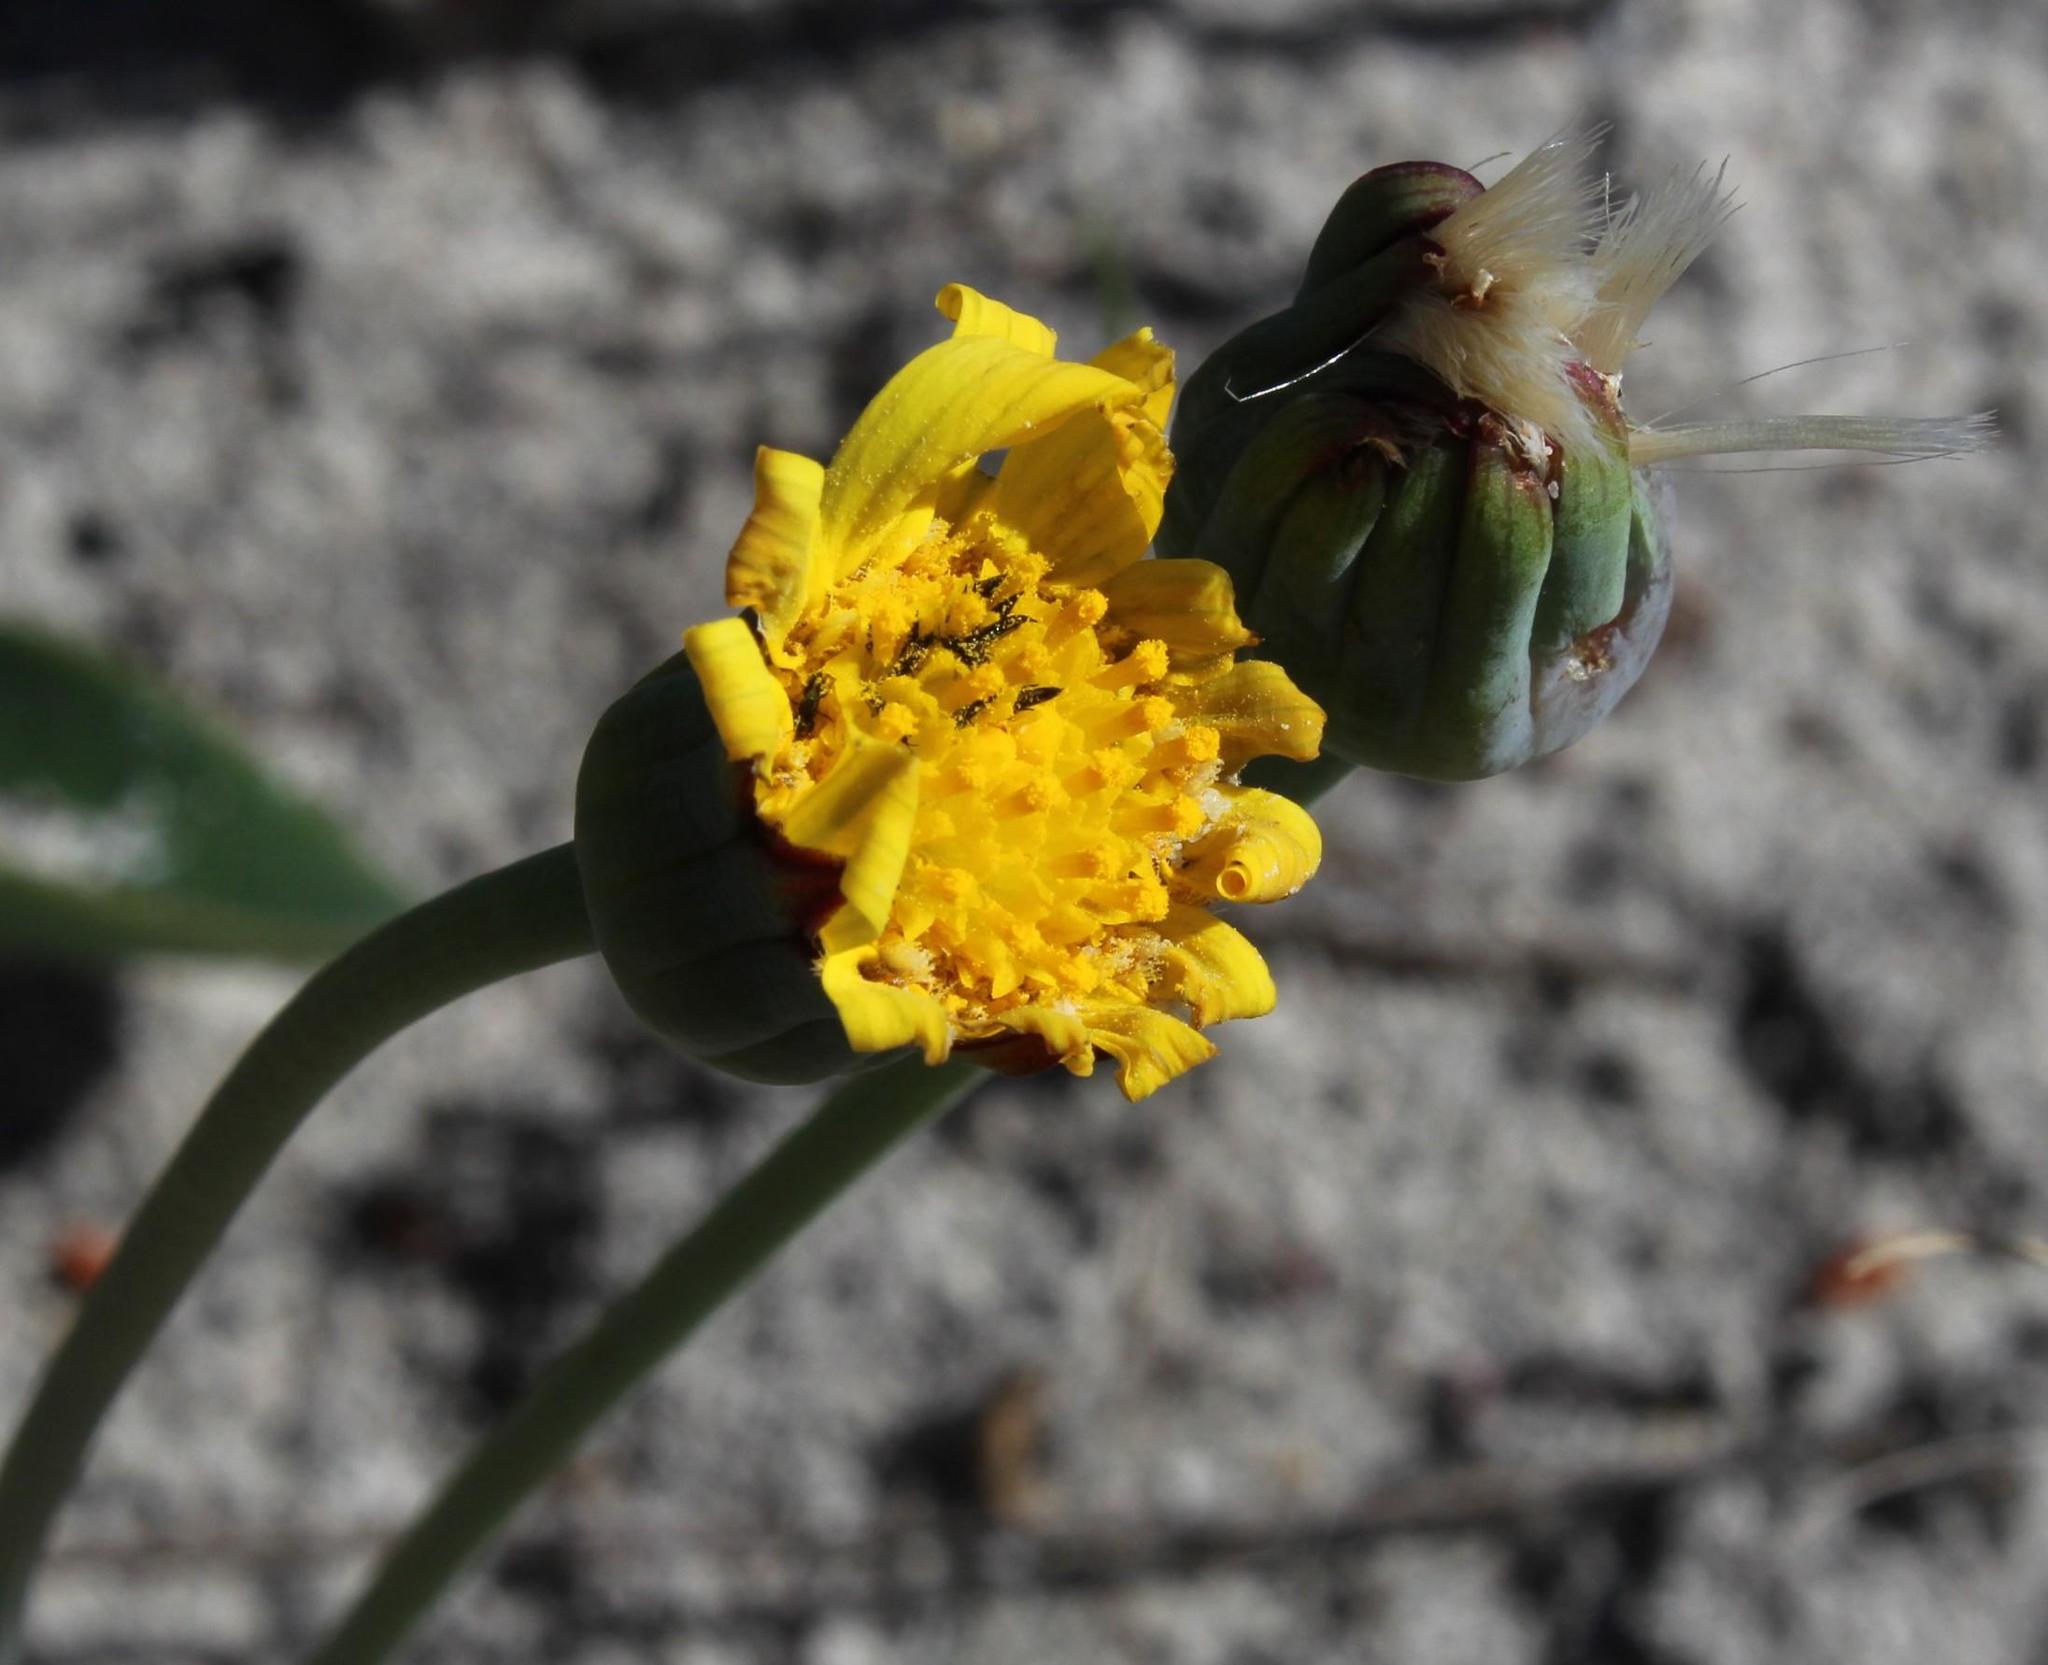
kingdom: Plantae
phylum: Tracheophyta
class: Magnoliopsida
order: Asterales
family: Asteraceae
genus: Othonna
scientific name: Othonna bulbosa
